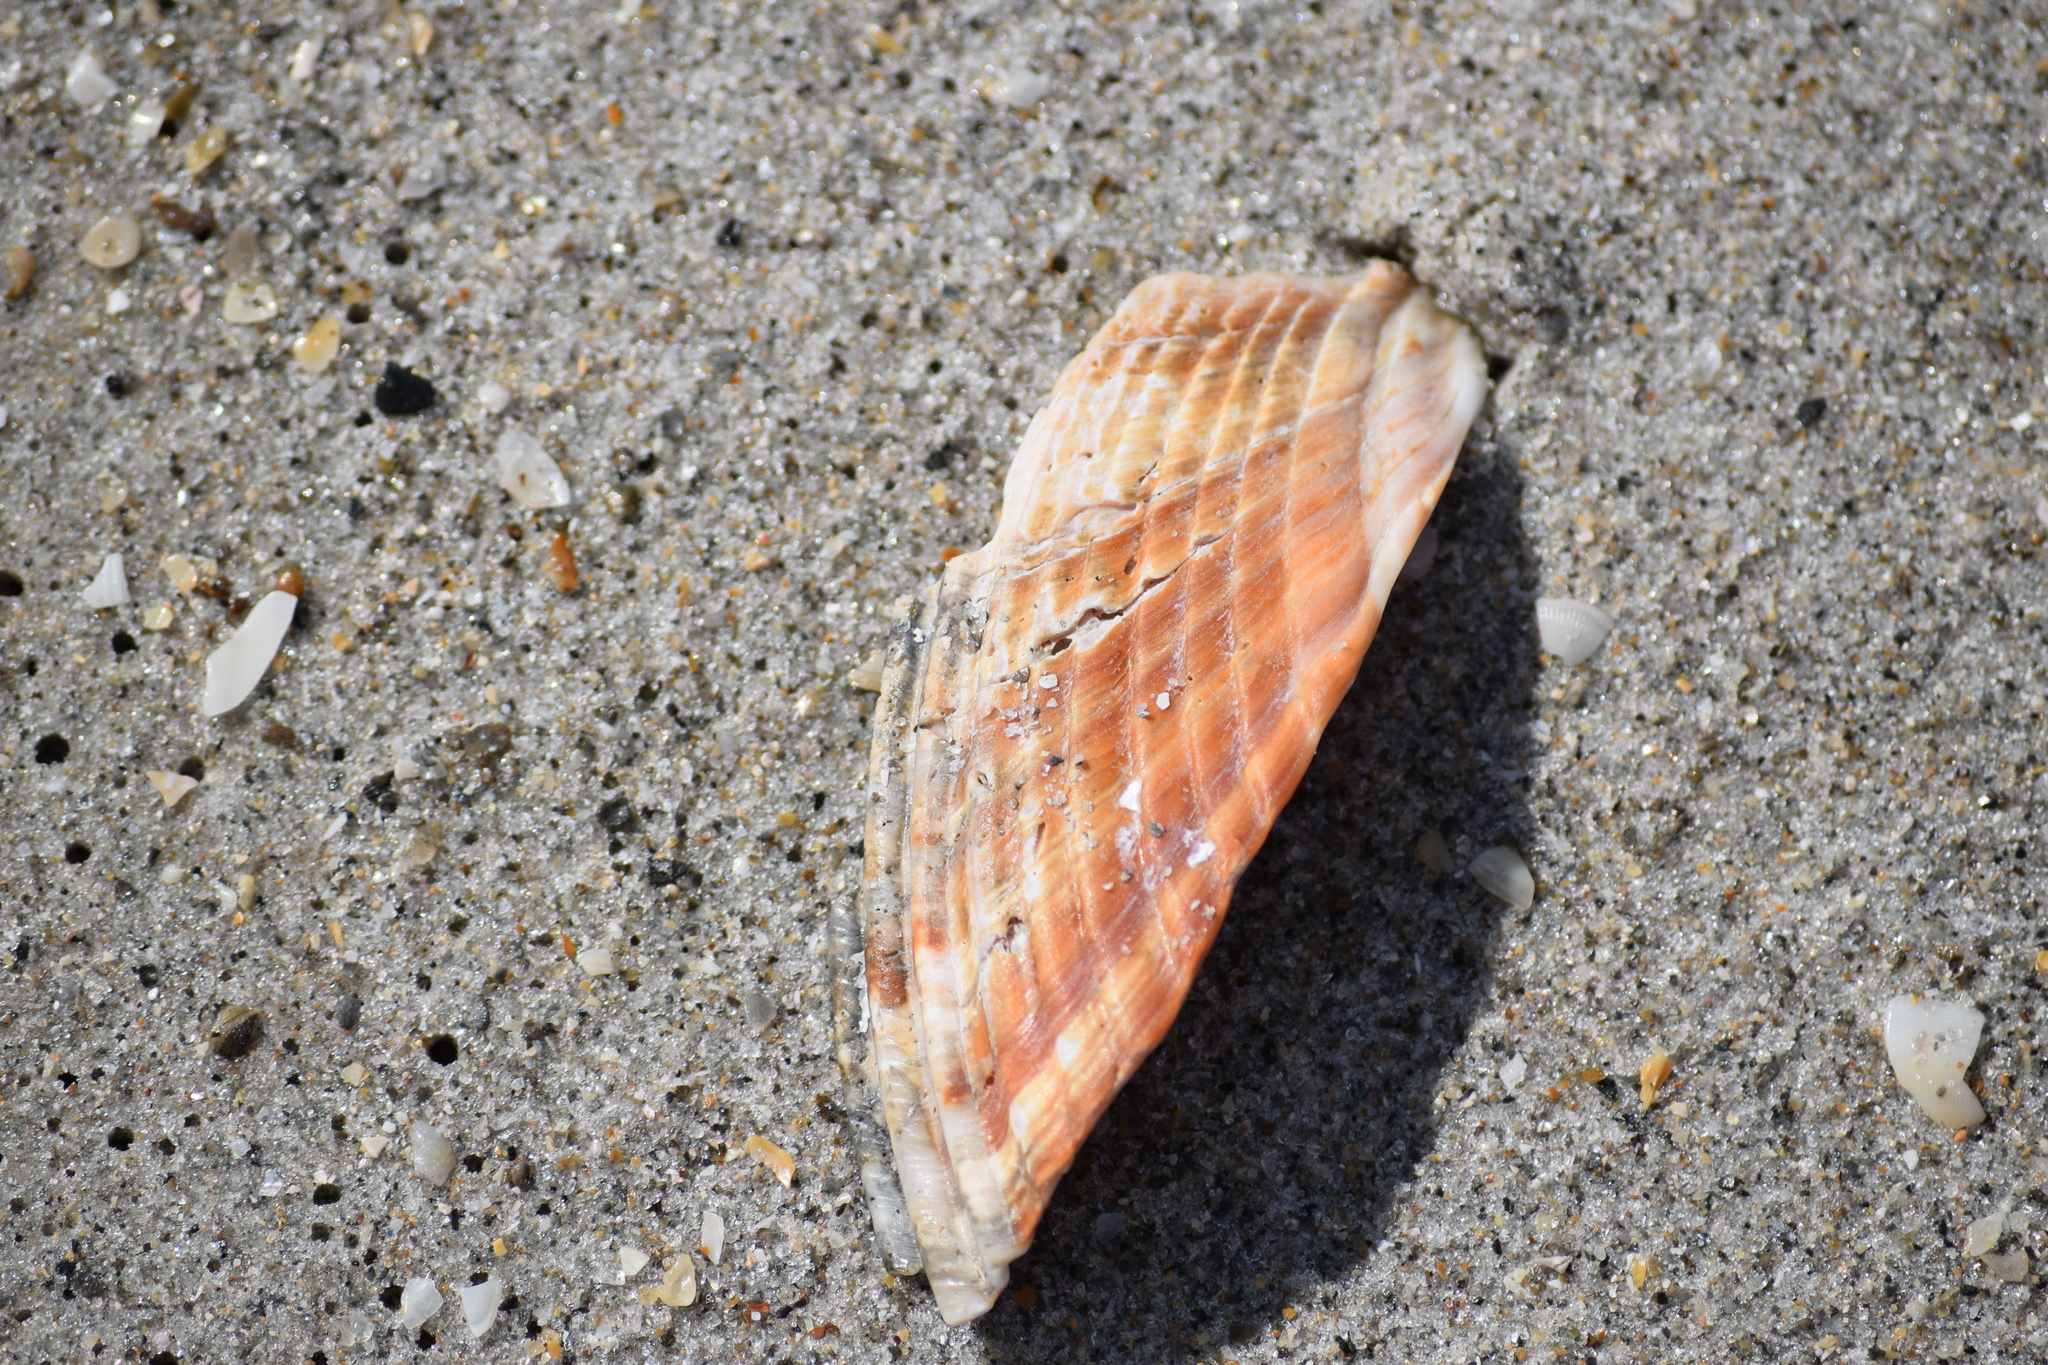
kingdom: Animalia
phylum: Mollusca
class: Bivalvia
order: Cardiida
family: Cardiidae
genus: Dinocardium
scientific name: Dinocardium robustum
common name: Atlantic giant cockle
